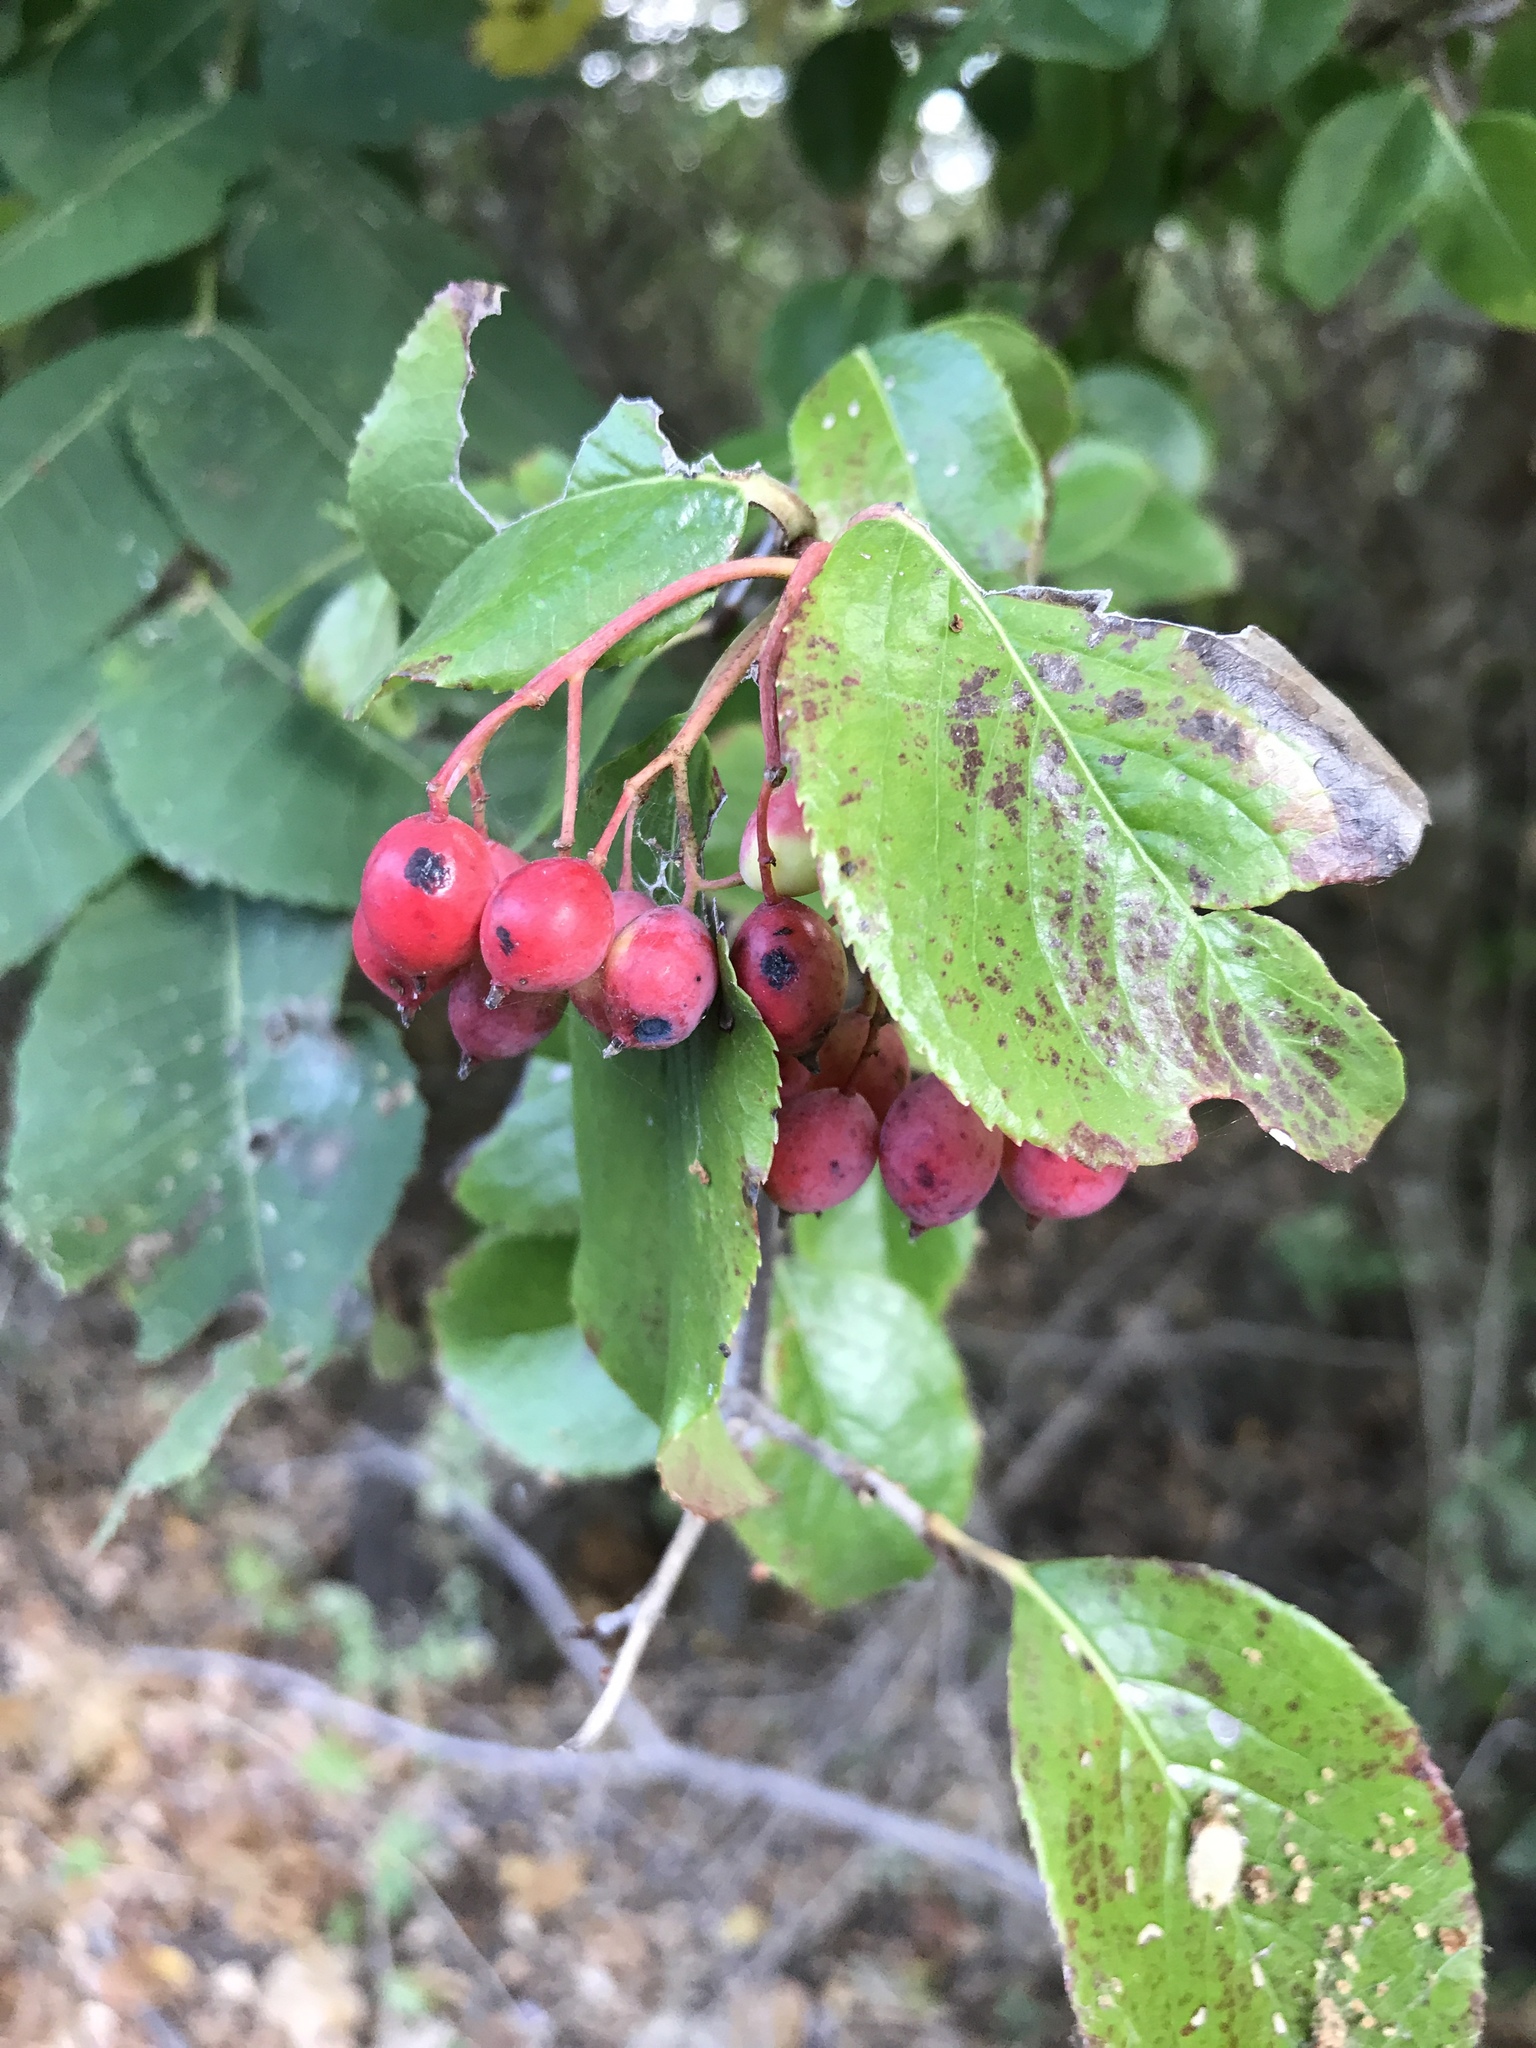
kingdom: Plantae
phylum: Tracheophyta
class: Magnoliopsida
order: Dipsacales
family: Viburnaceae
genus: Viburnum
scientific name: Viburnum rufidulum
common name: Blue haw
